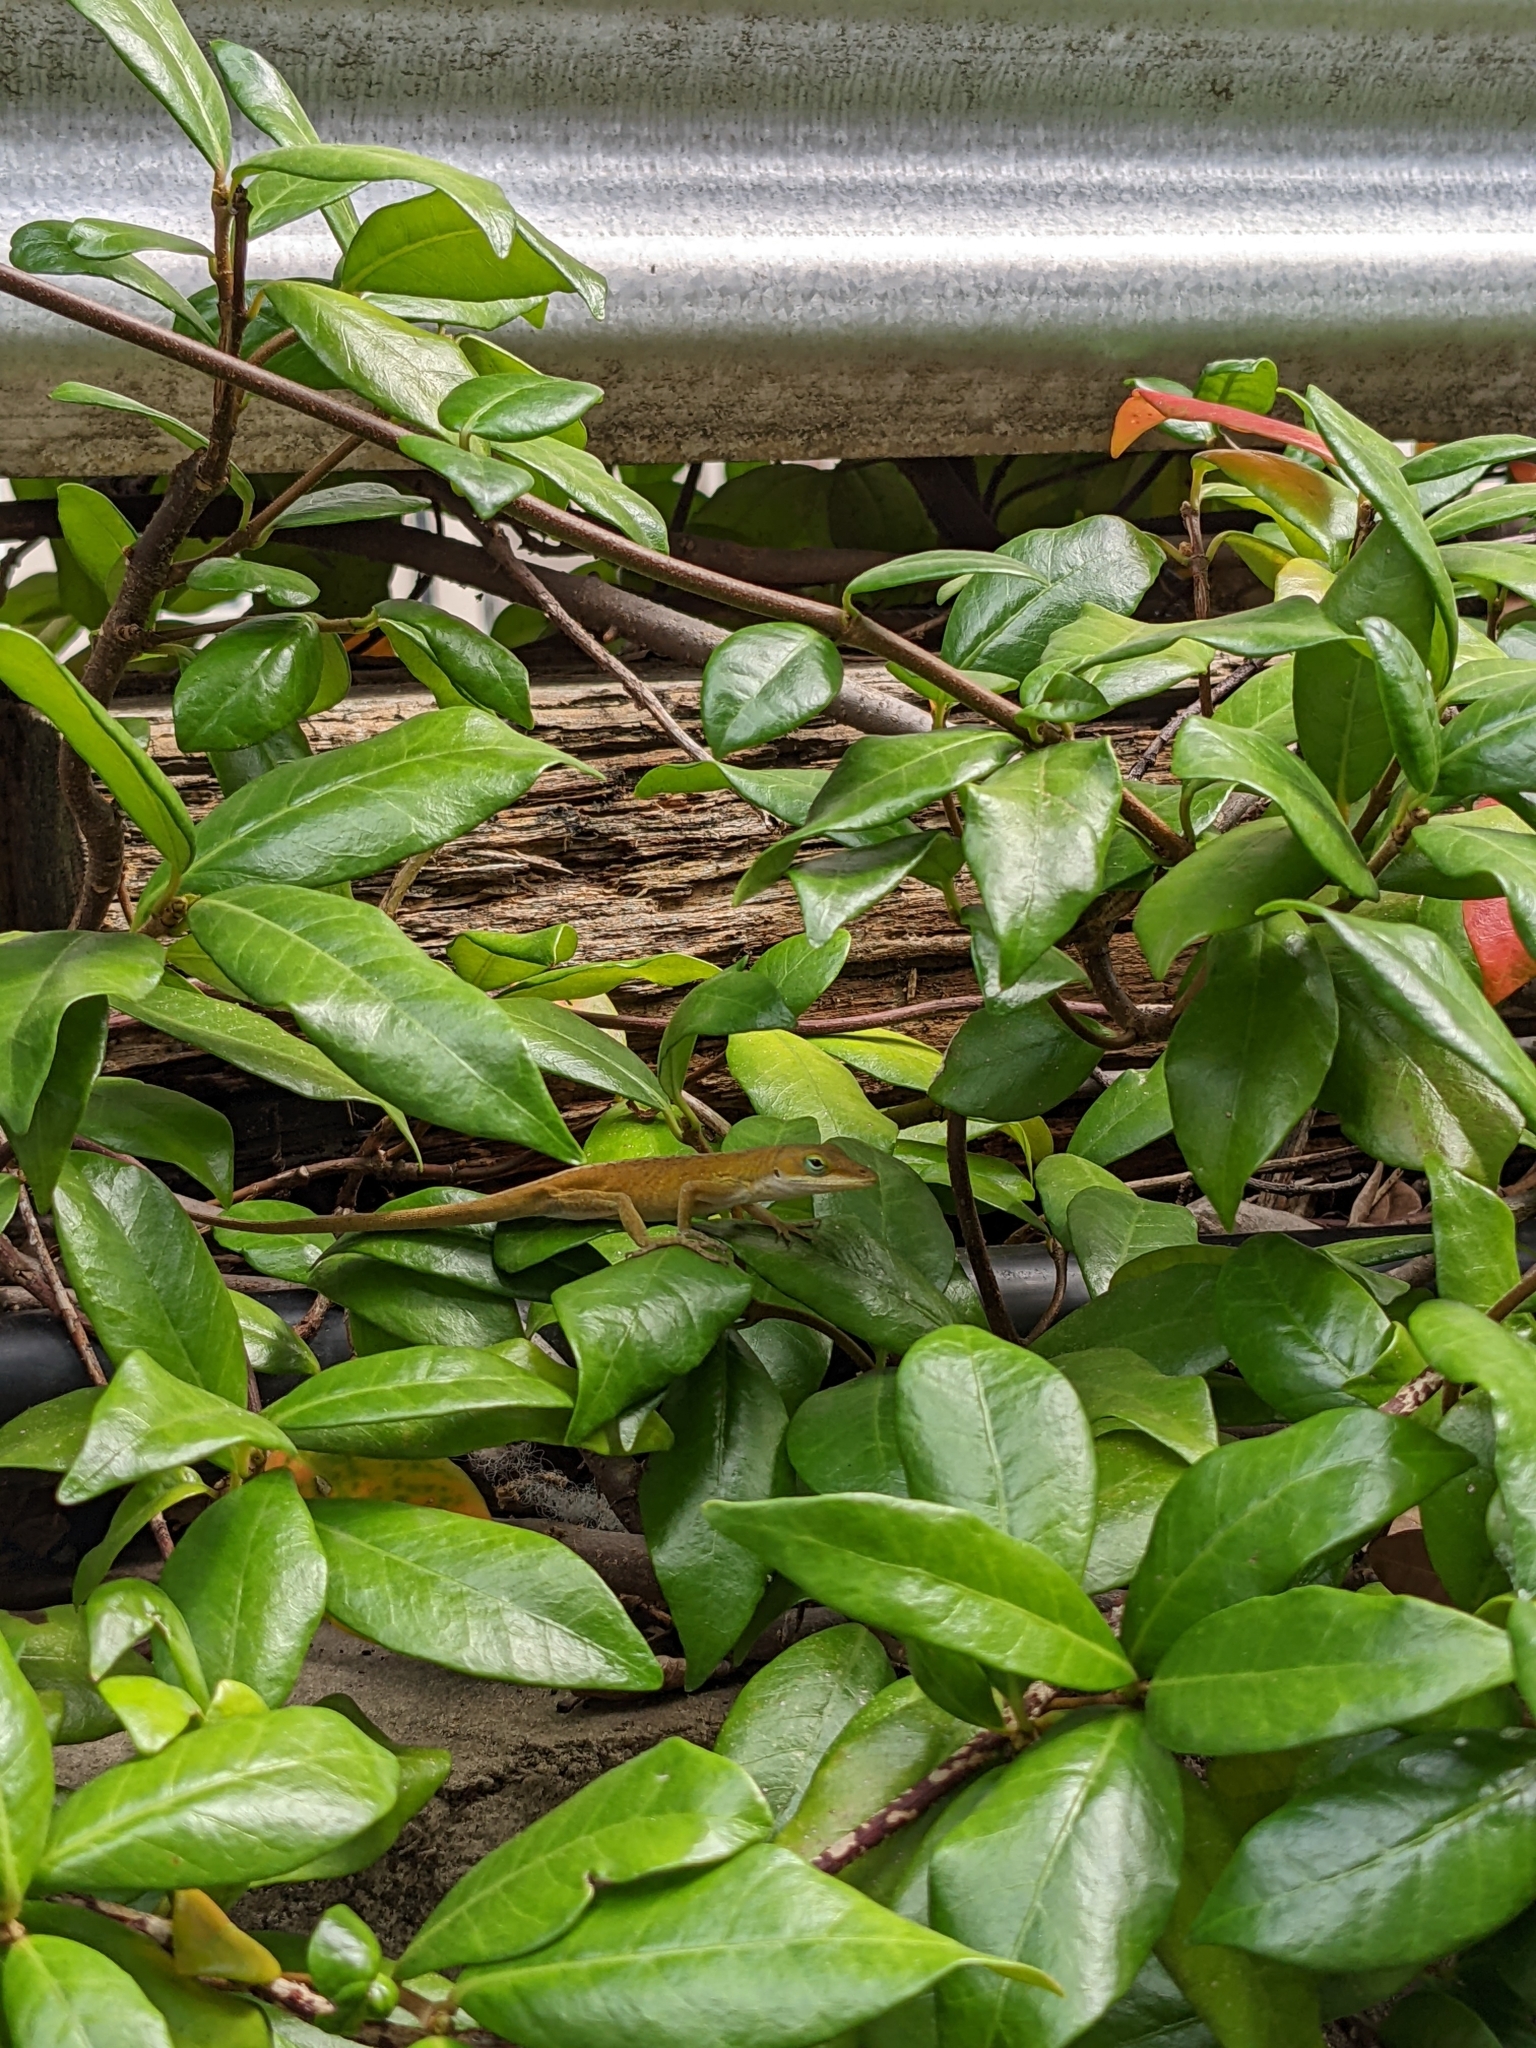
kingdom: Animalia
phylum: Chordata
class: Squamata
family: Dactyloidae
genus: Anolis
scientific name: Anolis carolinensis
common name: Green anole
